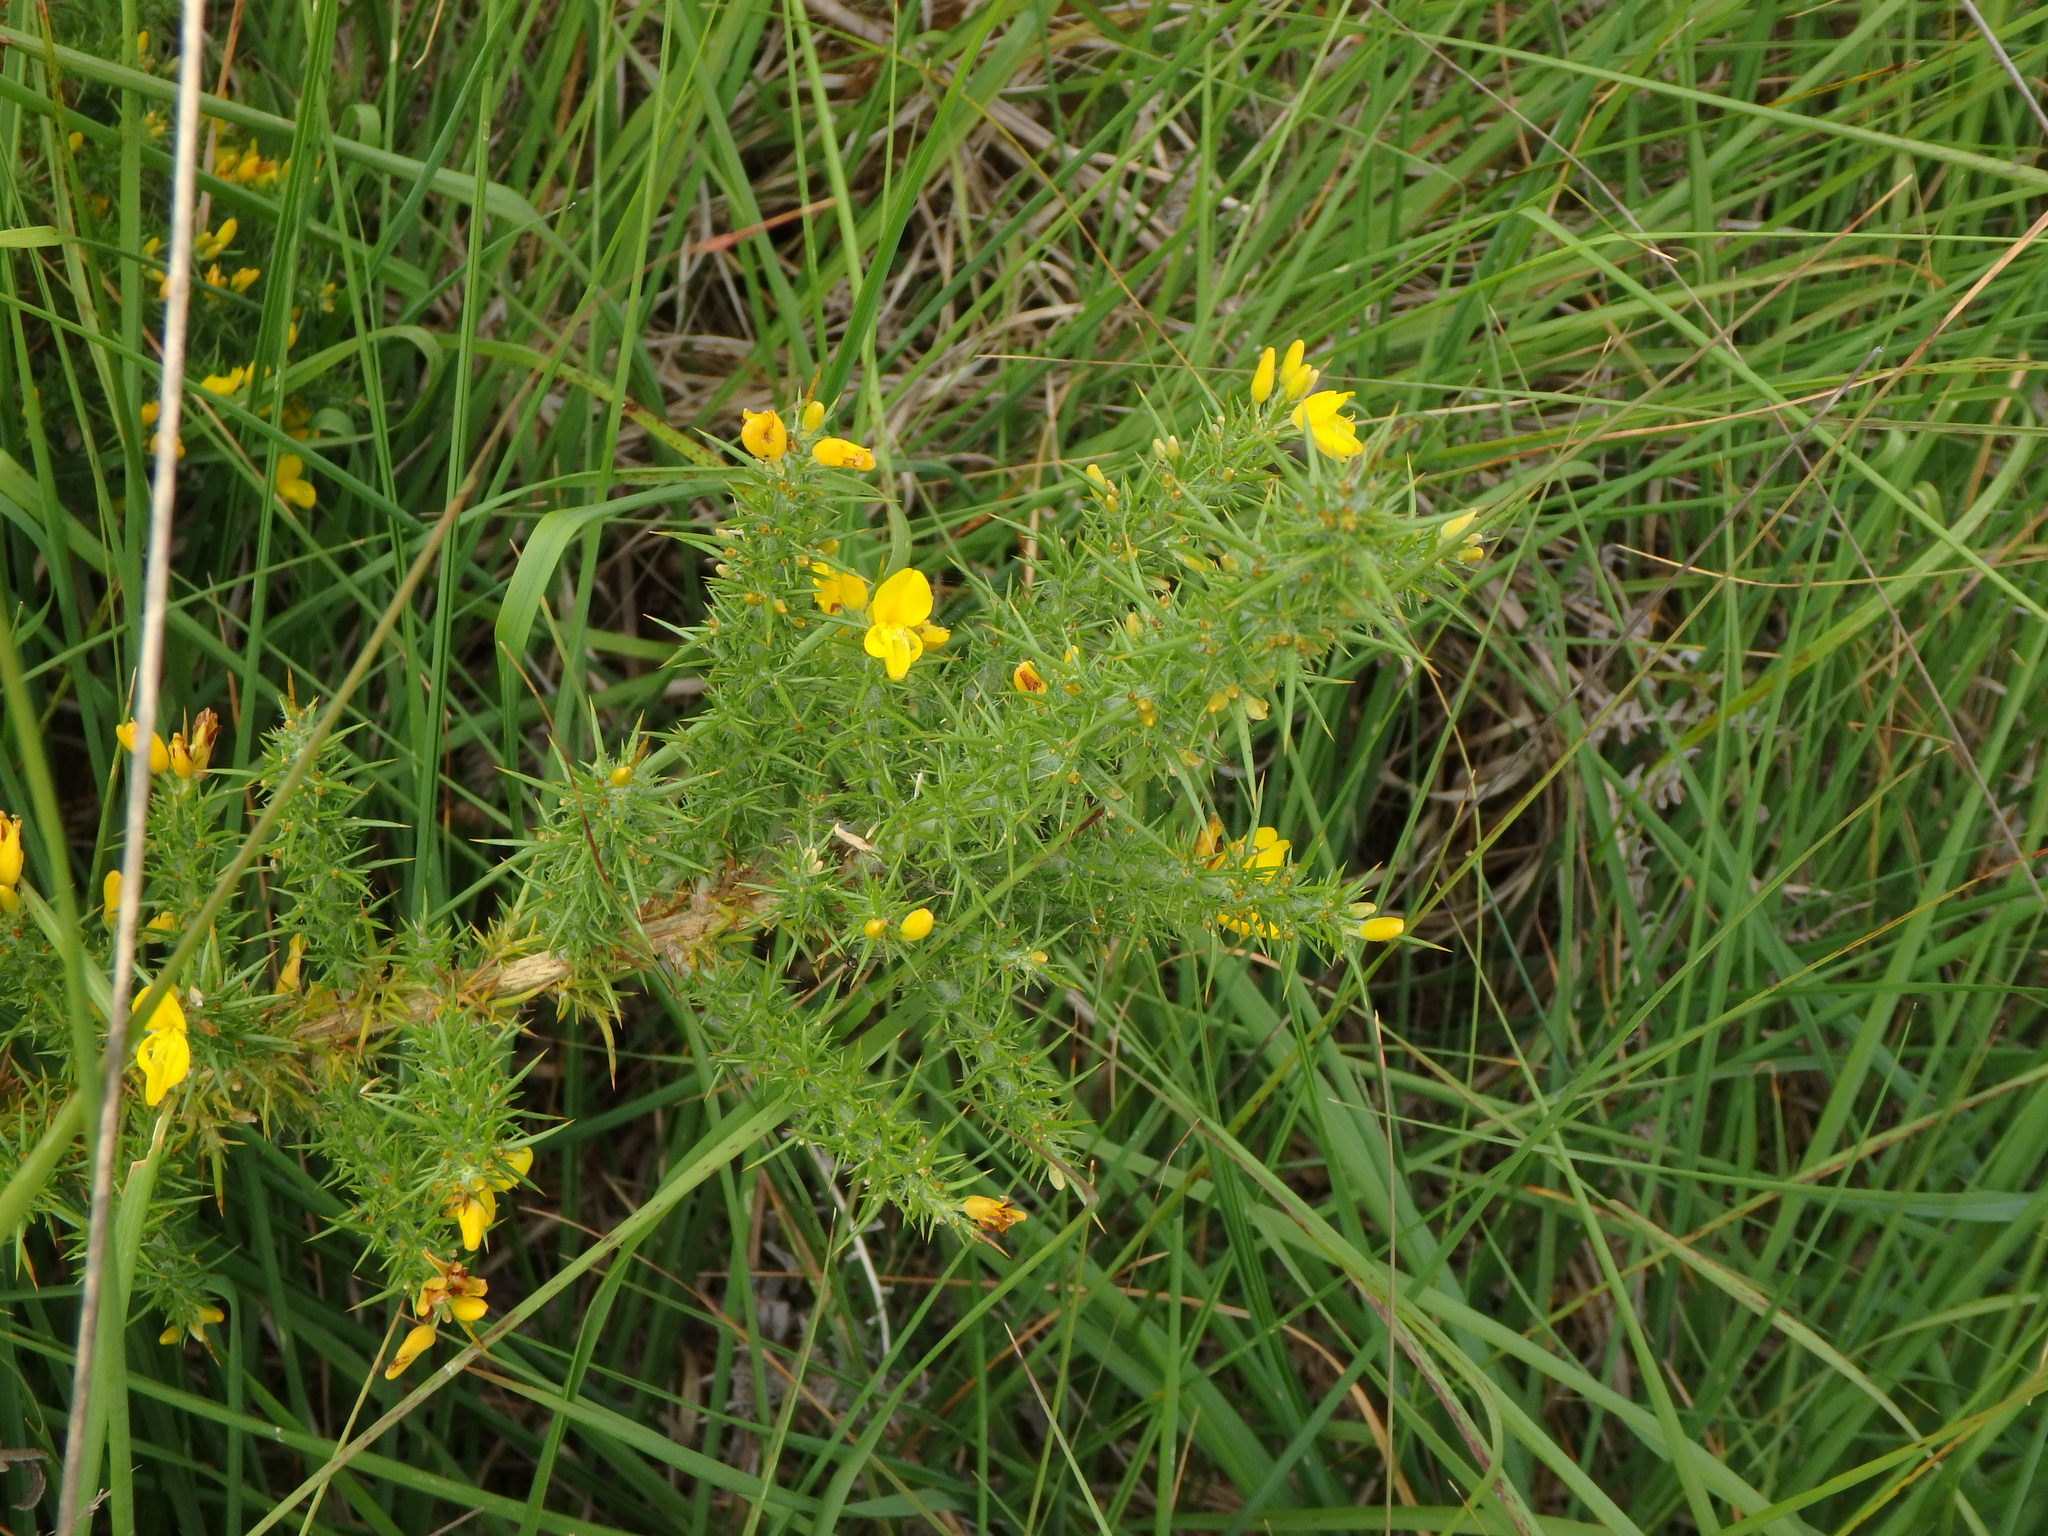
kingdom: Plantae
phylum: Tracheophyta
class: Magnoliopsida
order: Fabales
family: Fabaceae
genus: Ulex
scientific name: Ulex europaeus
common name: Common gorse
